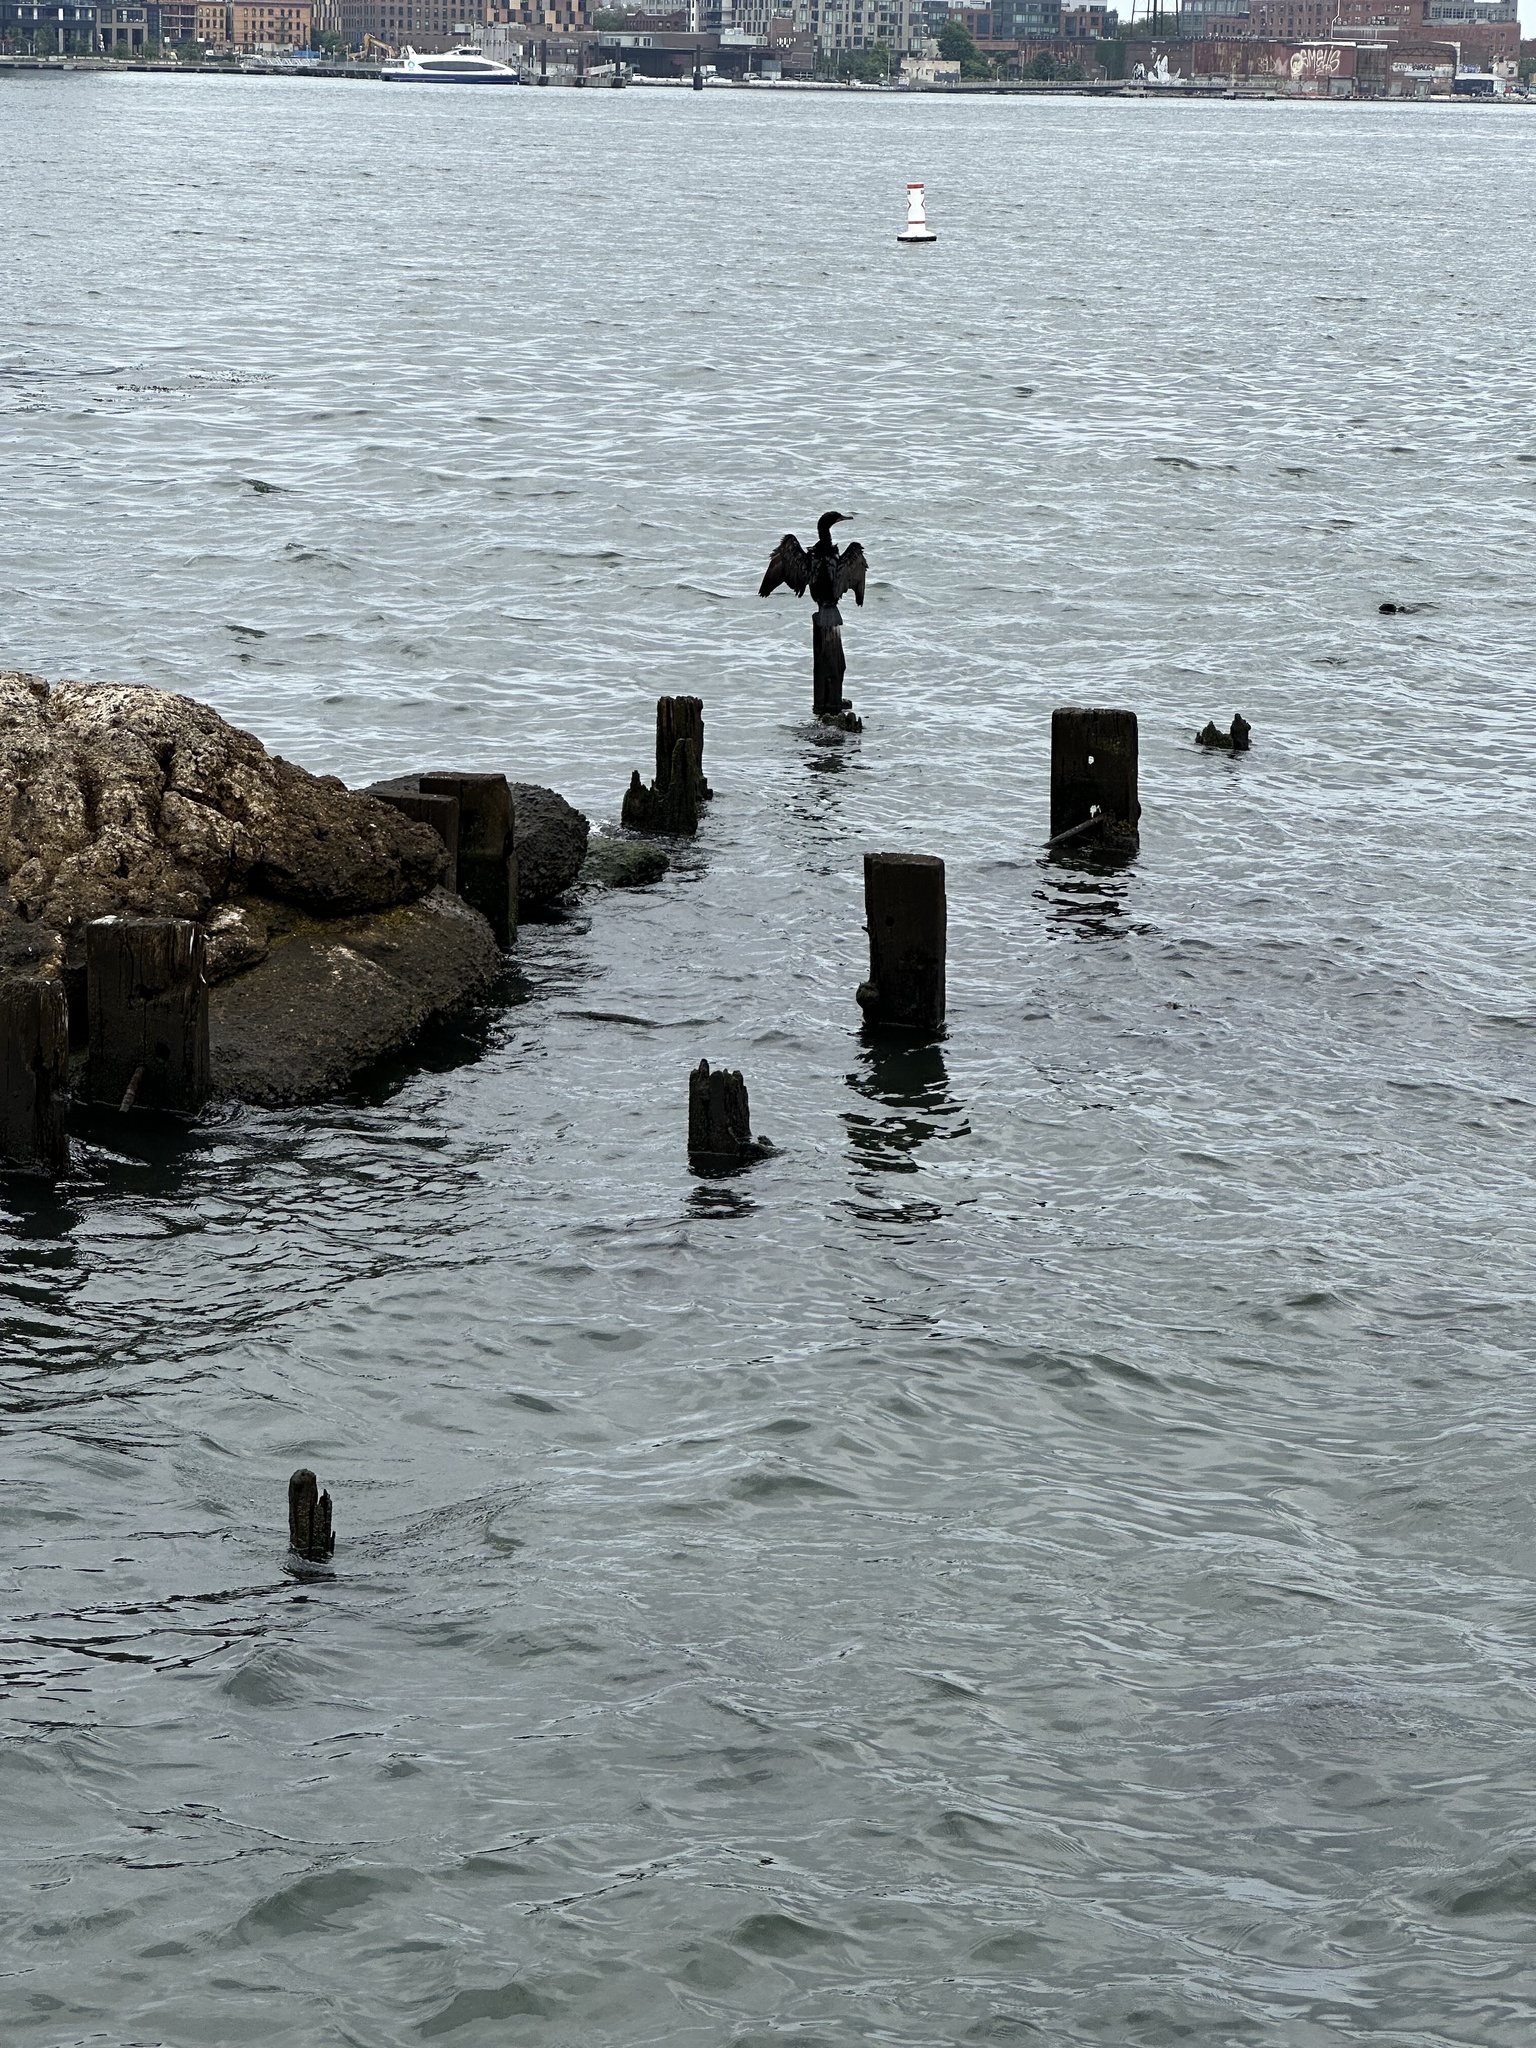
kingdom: Animalia
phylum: Chordata
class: Aves
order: Suliformes
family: Phalacrocoracidae
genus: Phalacrocorax
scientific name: Phalacrocorax auritus
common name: Double-crested cormorant
